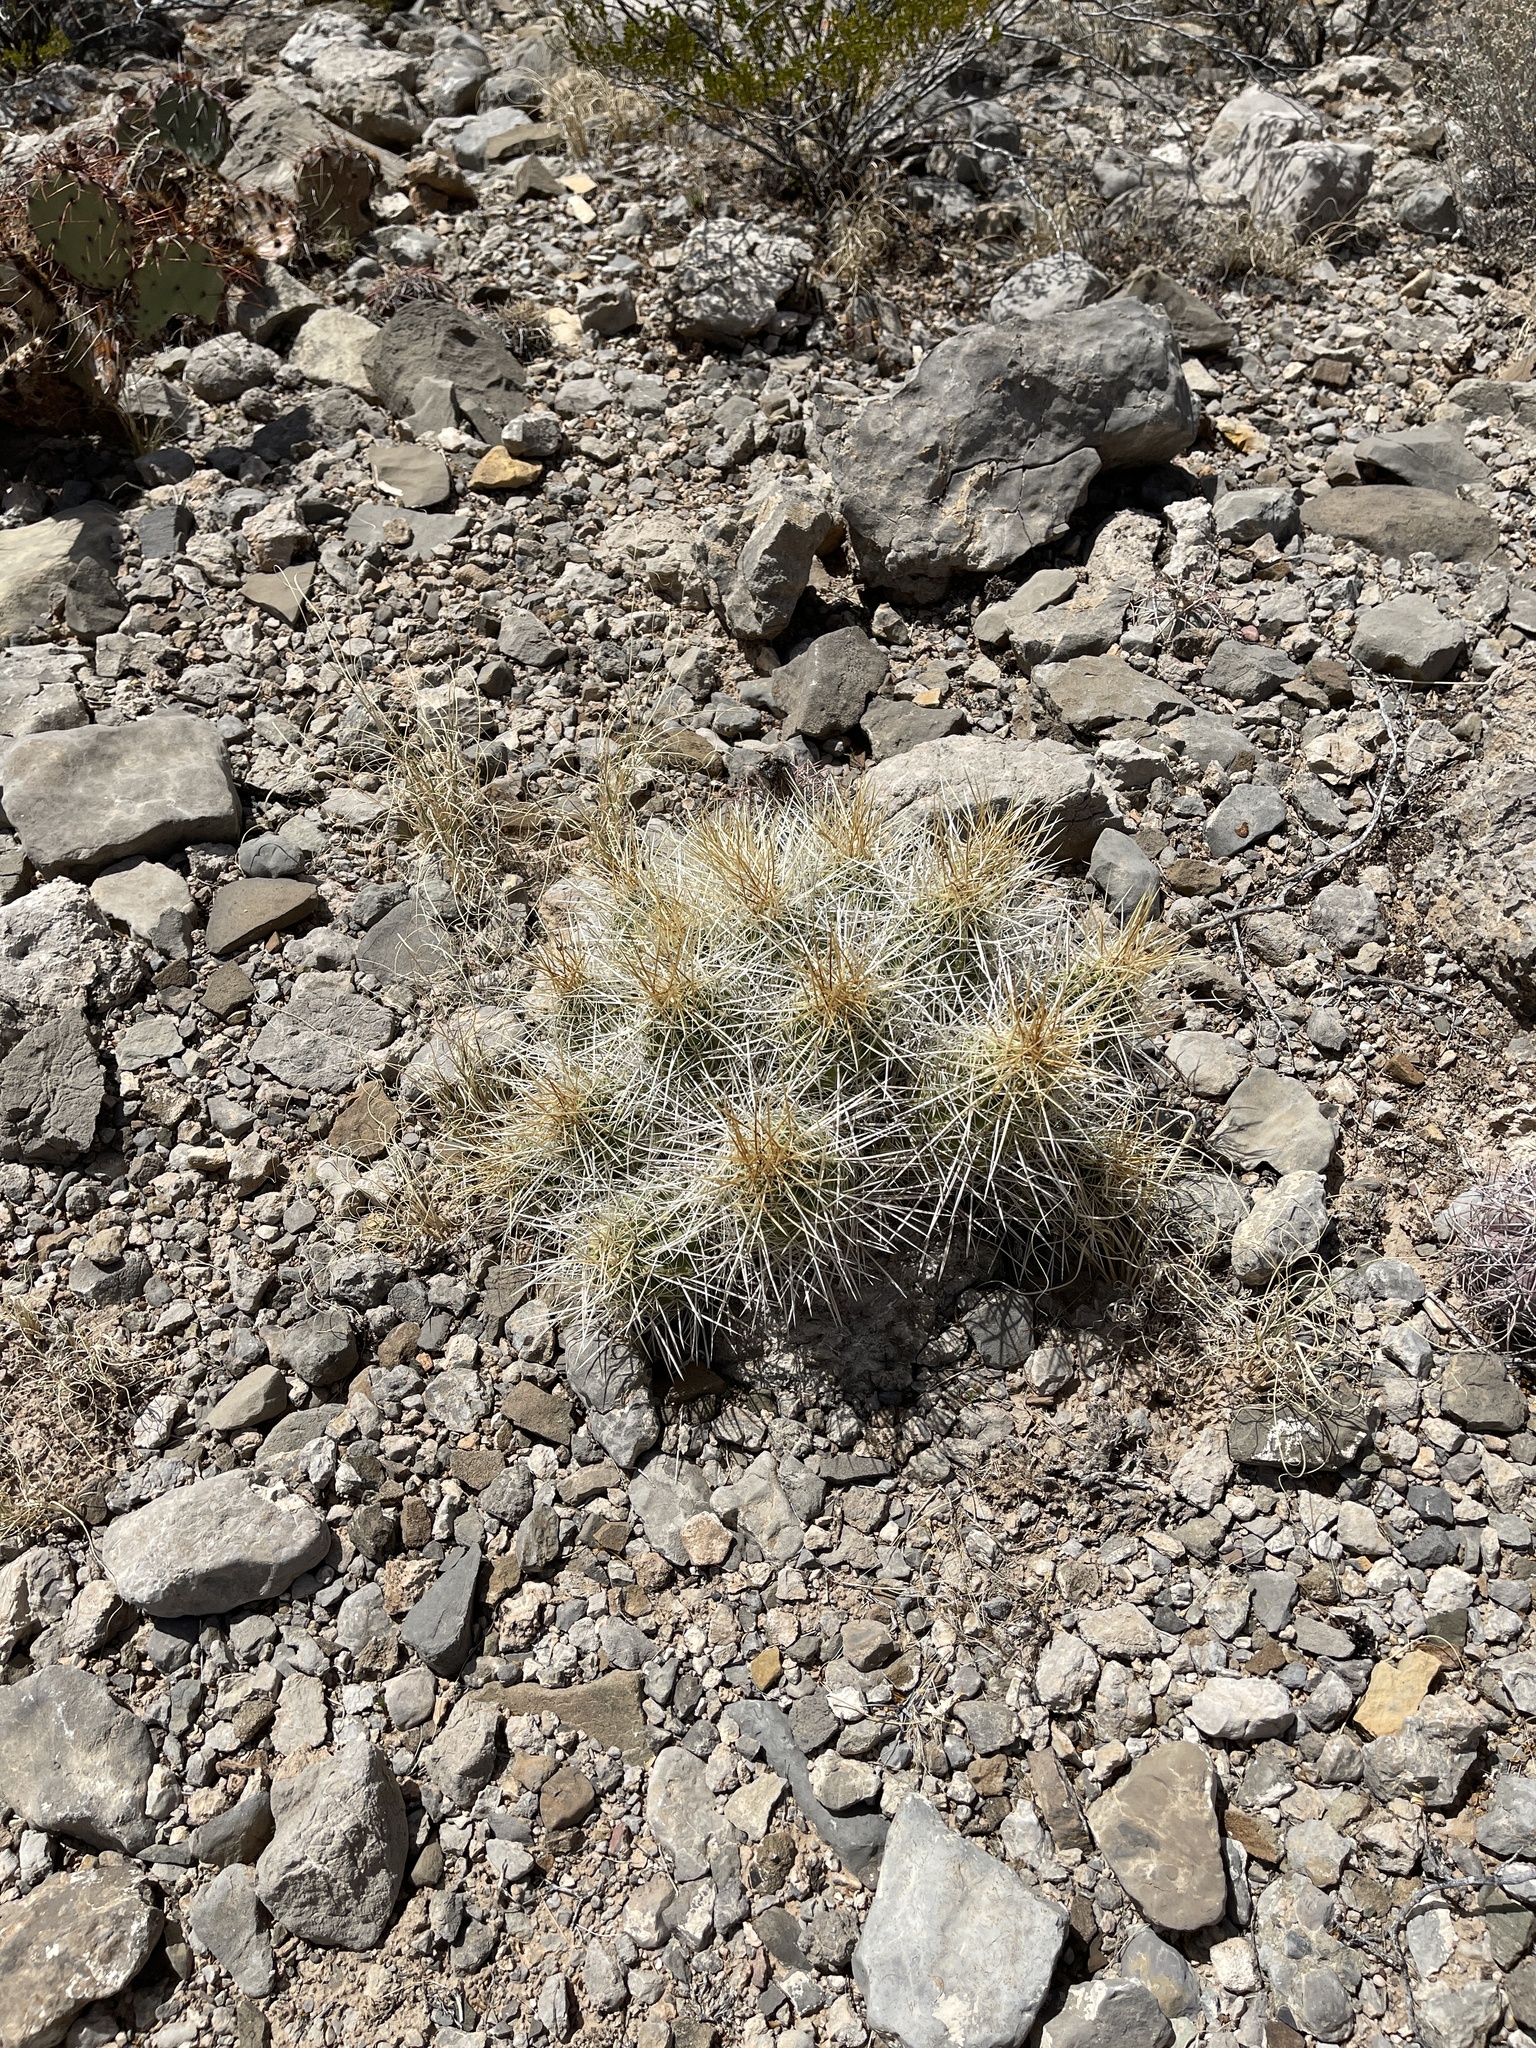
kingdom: Plantae
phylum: Tracheophyta
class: Magnoliopsida
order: Caryophyllales
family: Cactaceae
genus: Echinocereus
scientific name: Echinocereus stramineus
